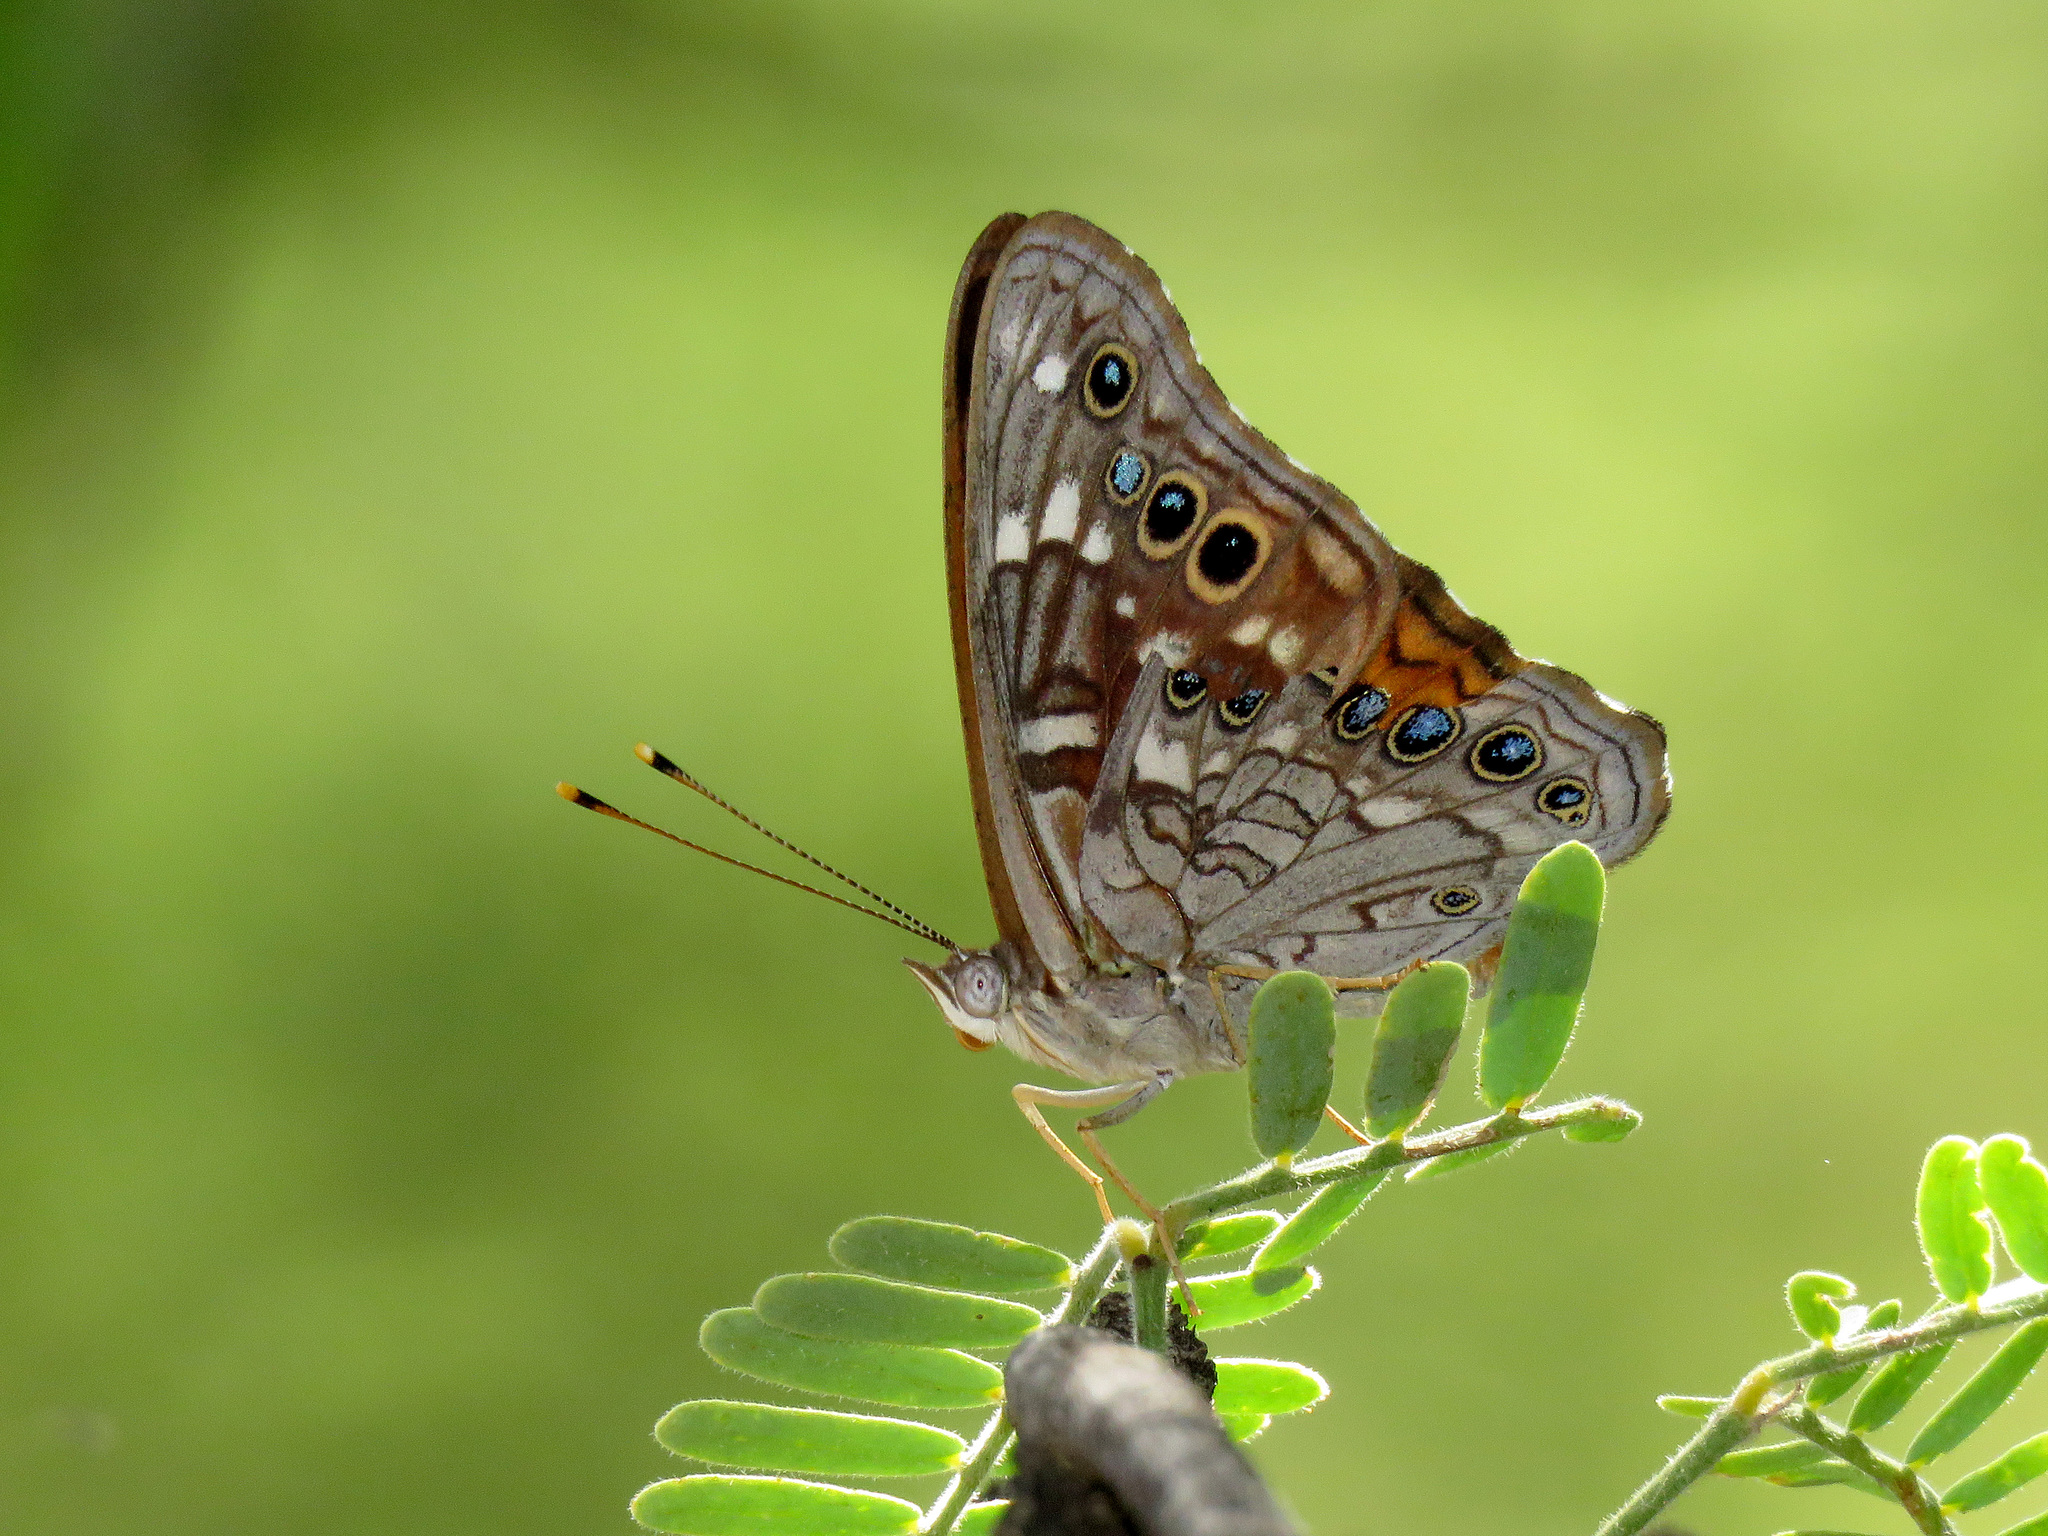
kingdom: Animalia
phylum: Arthropoda
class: Insecta
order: Lepidoptera
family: Nymphalidae
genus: Asterocampa
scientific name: Asterocampa leilia
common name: Empress leilia
